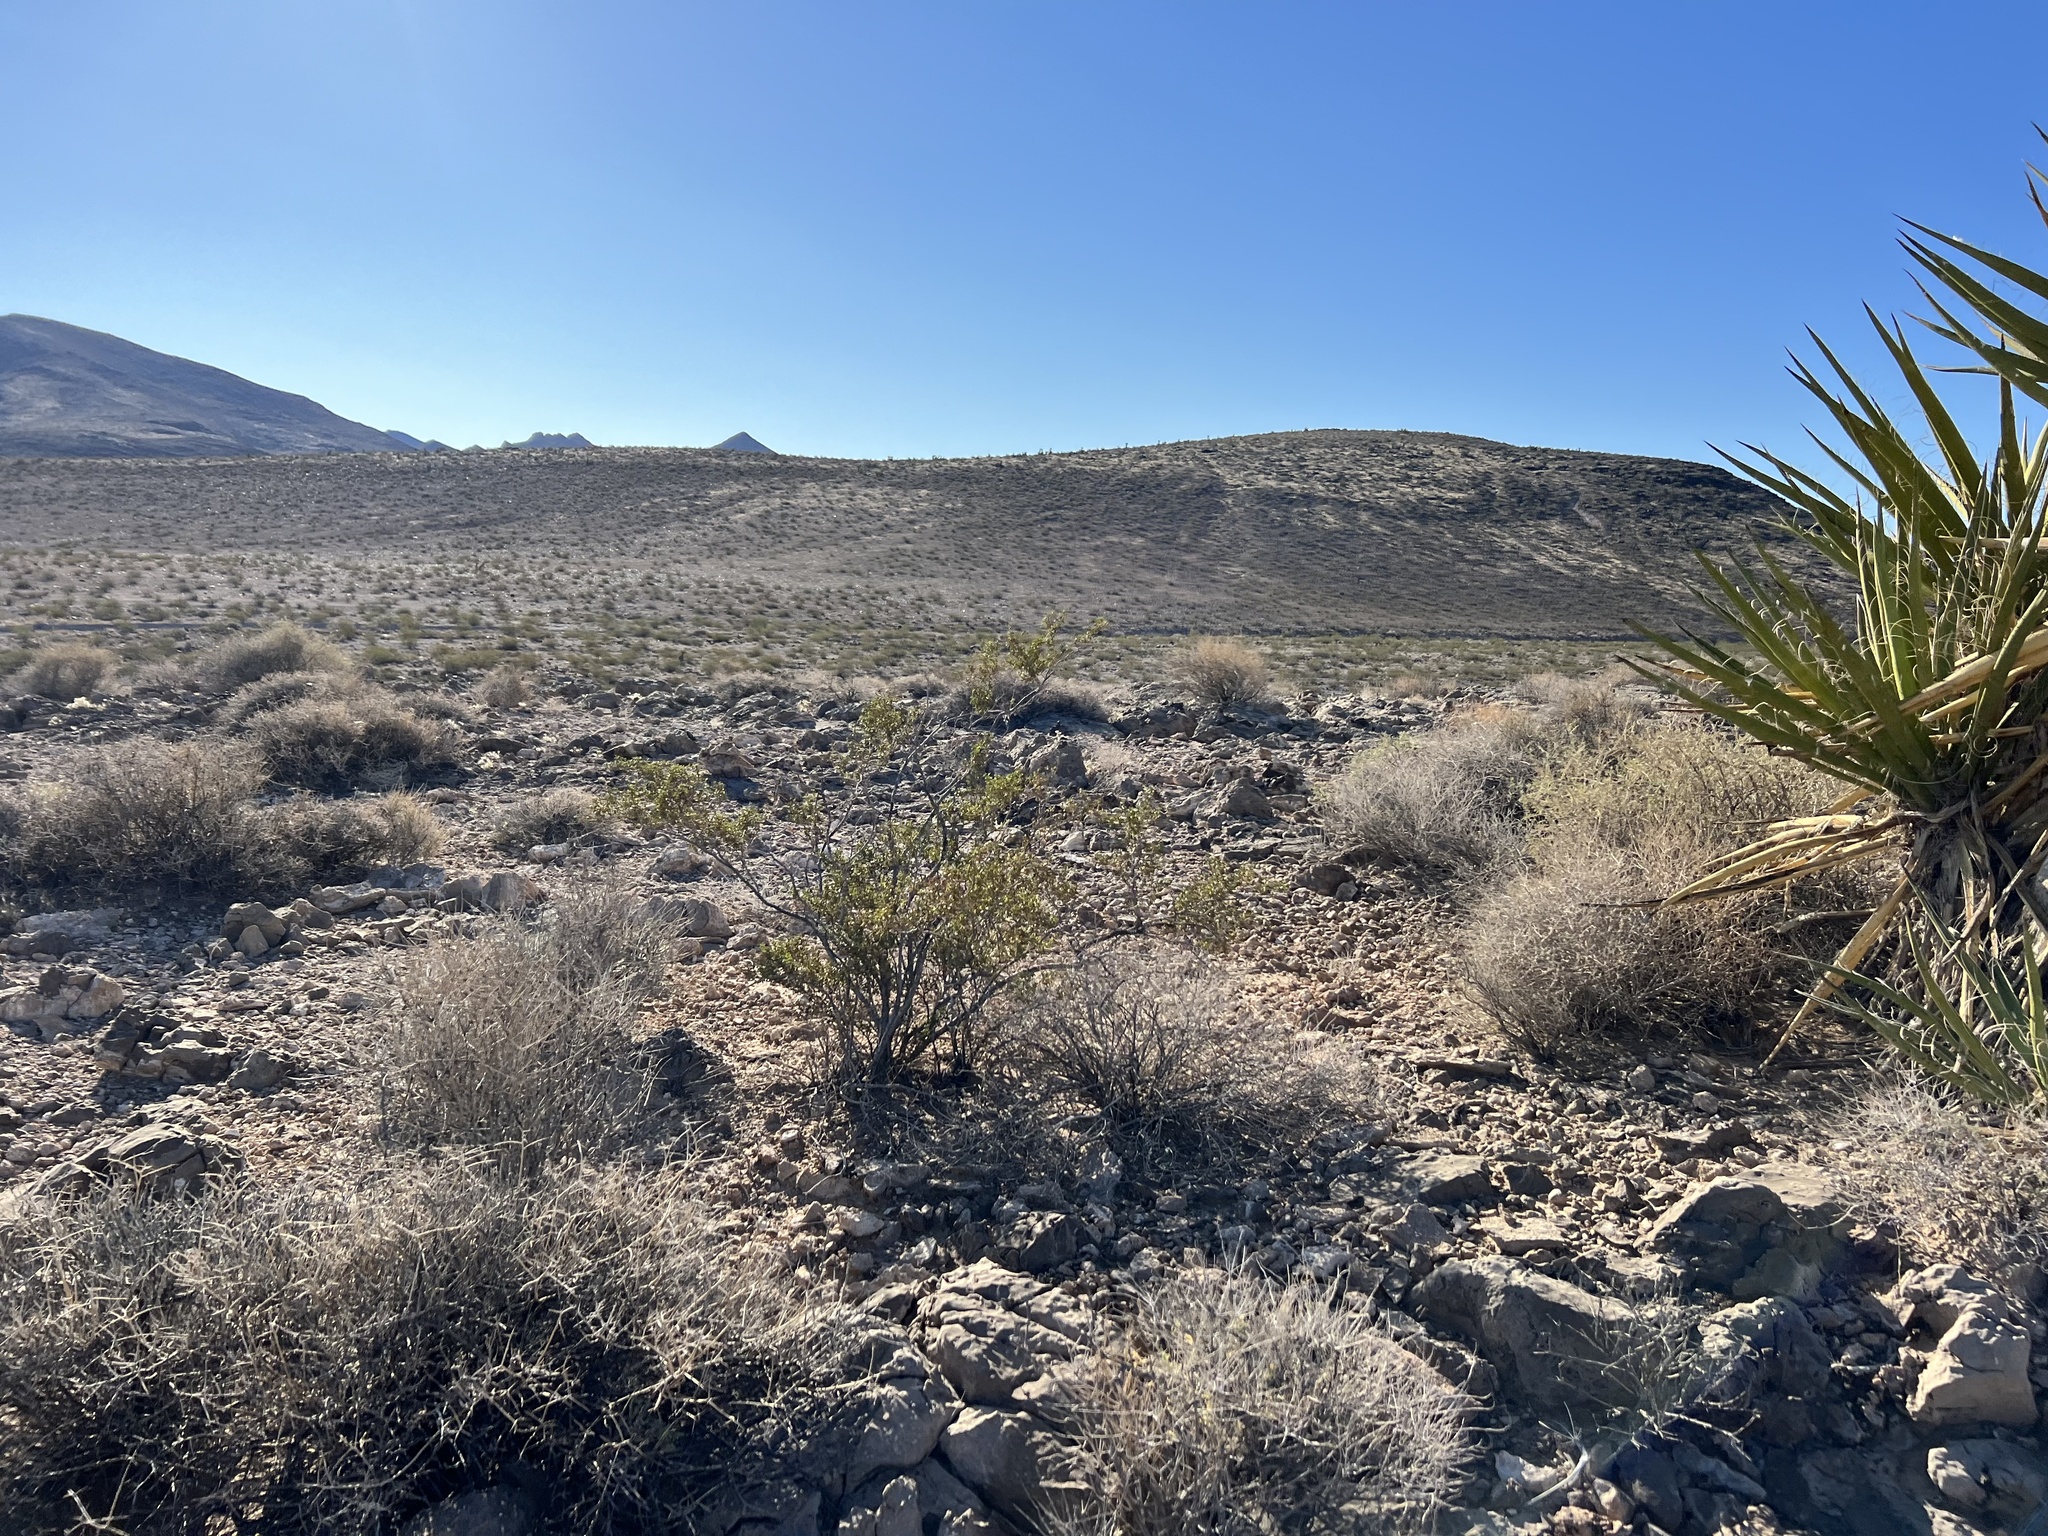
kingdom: Plantae
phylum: Tracheophyta
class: Magnoliopsida
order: Zygophyllales
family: Zygophyllaceae
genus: Larrea
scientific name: Larrea tridentata
